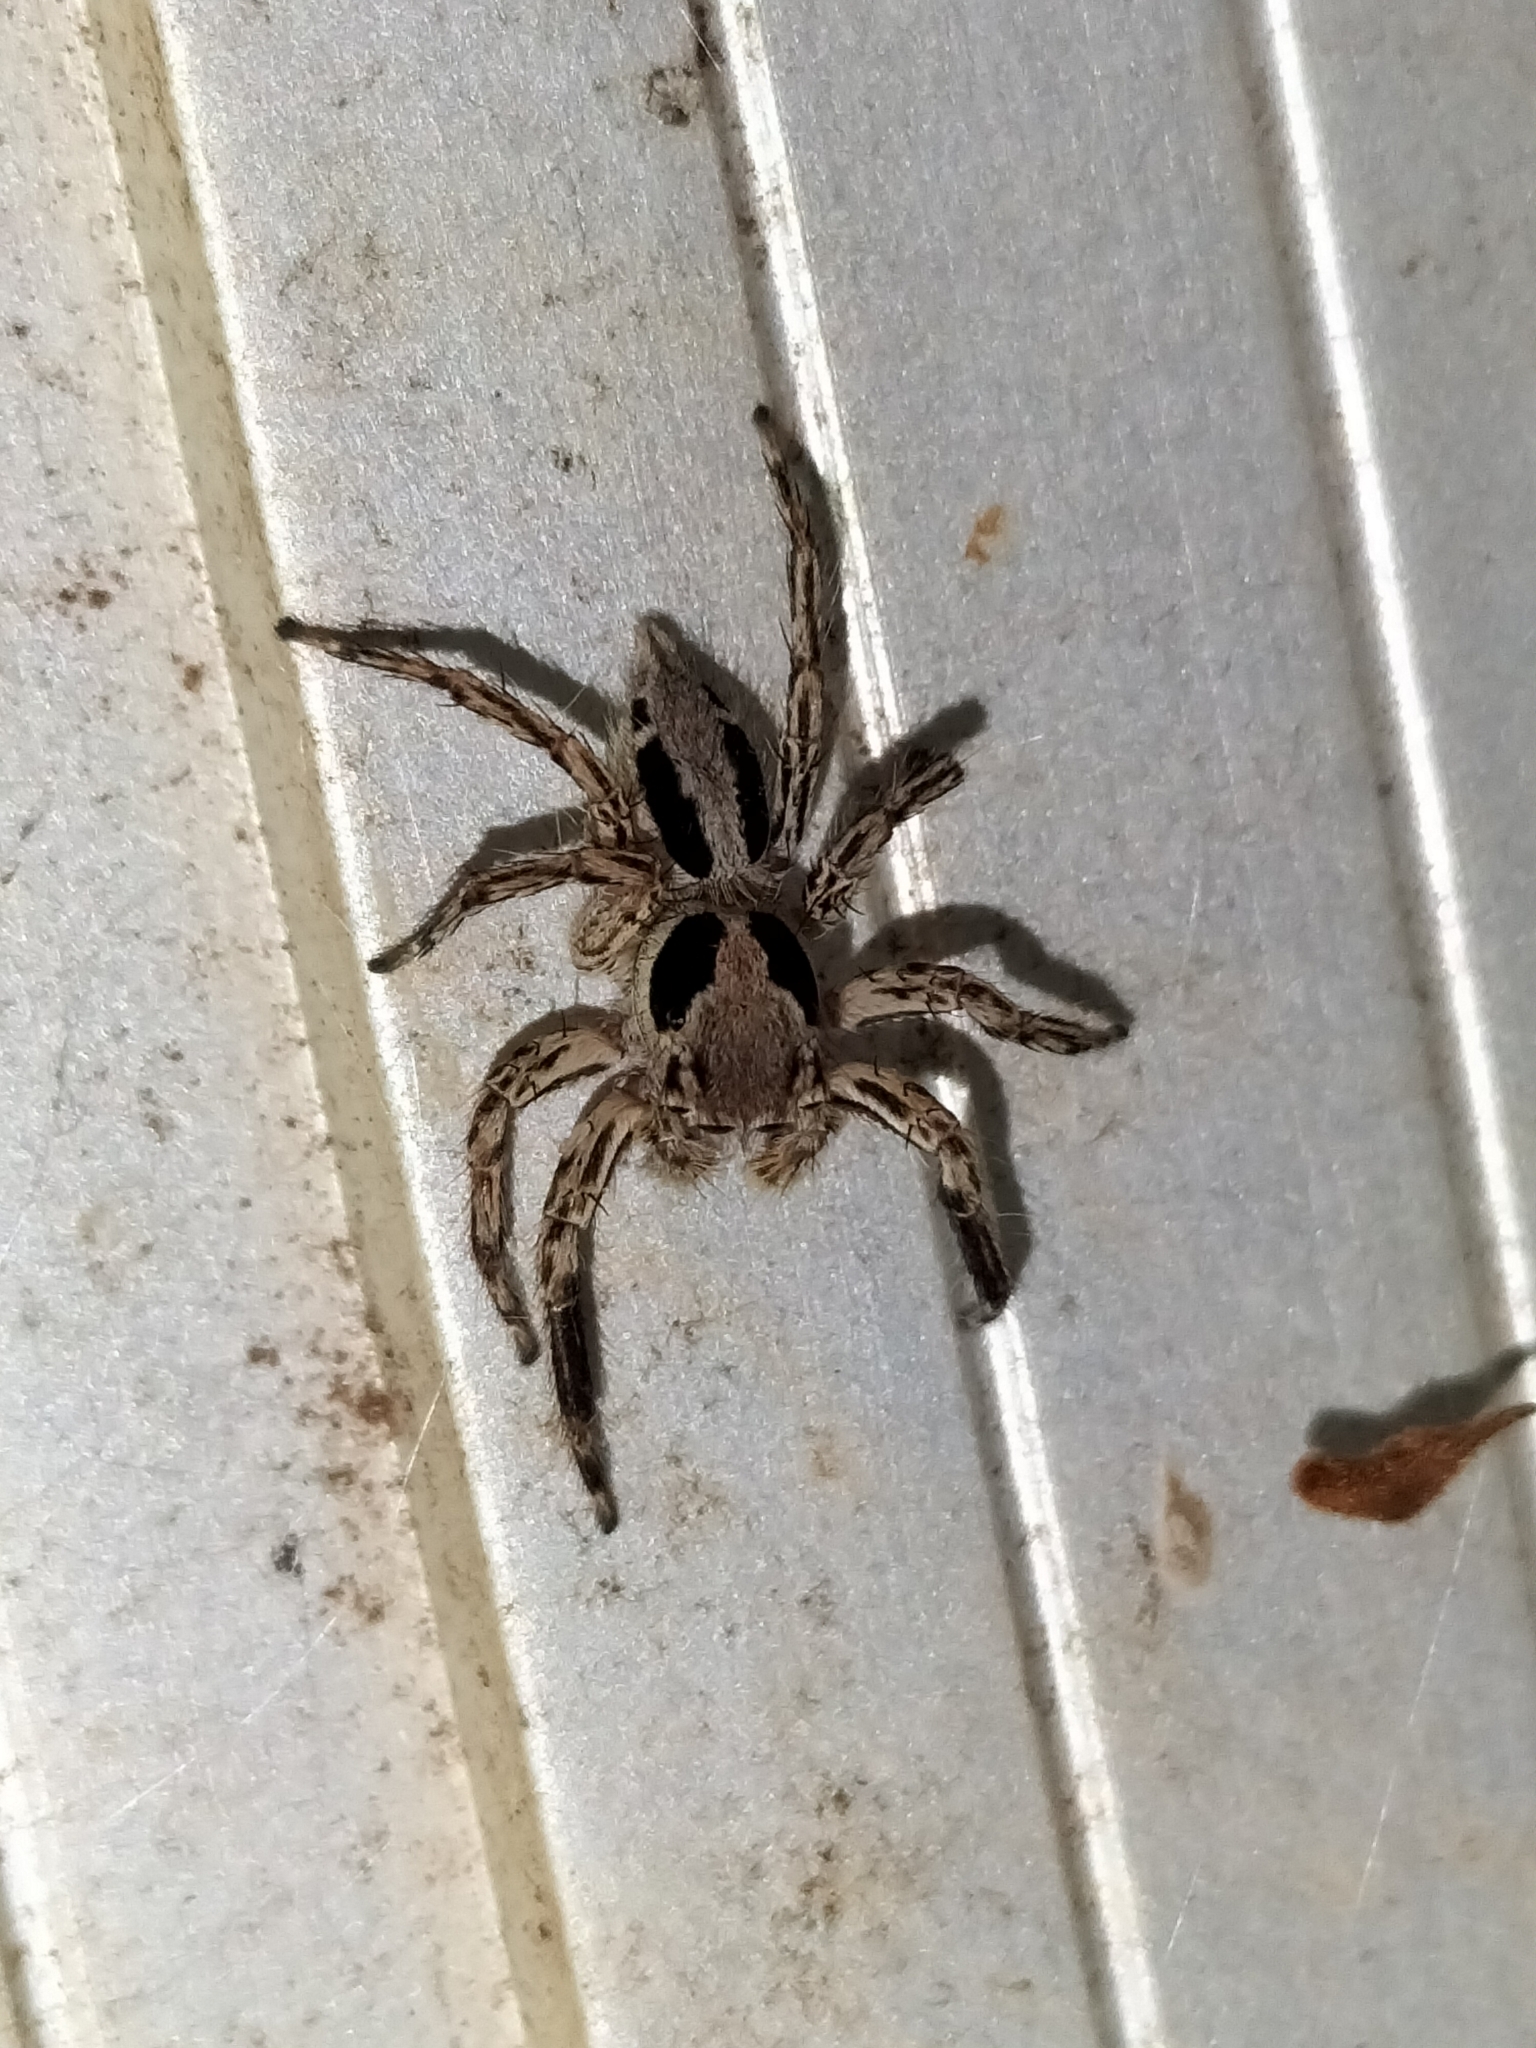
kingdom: Animalia
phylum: Arthropoda
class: Arachnida
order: Araneae
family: Salticidae
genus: Plexippus
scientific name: Plexippus petersi
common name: Jumping spider
